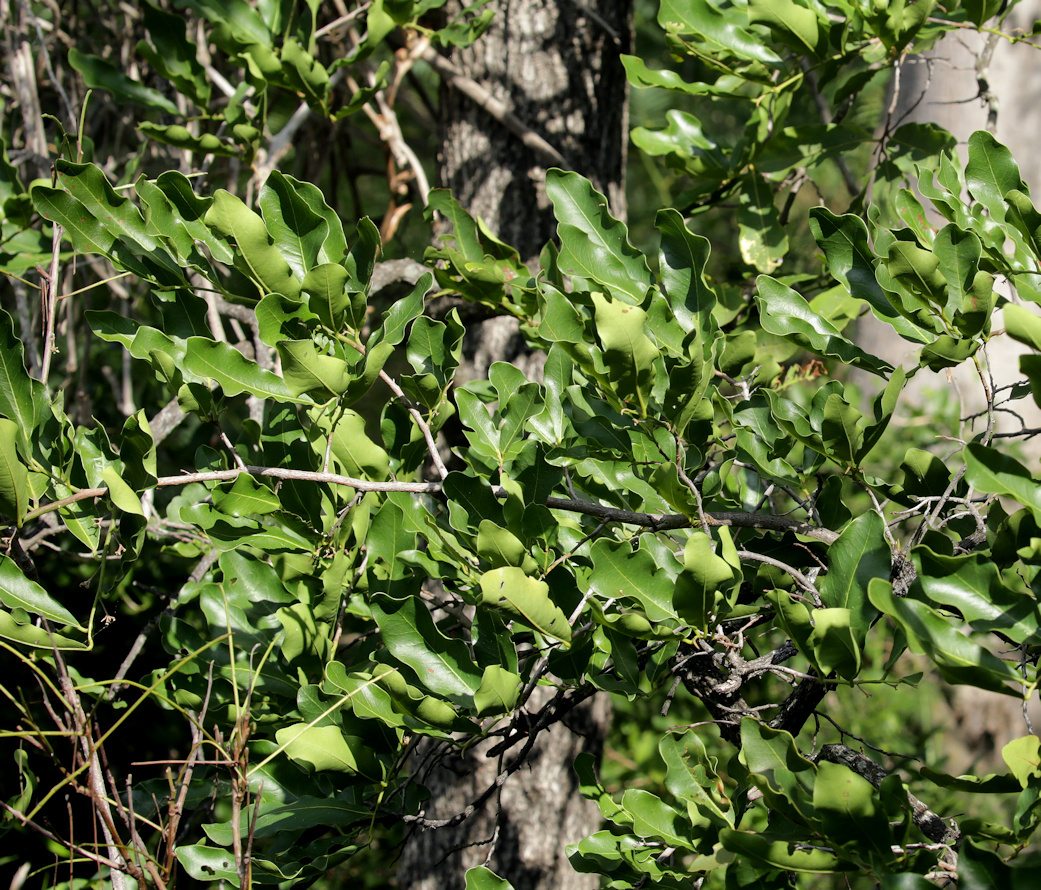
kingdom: Plantae
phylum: Tracheophyta
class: Magnoliopsida
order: Ericales
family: Ebenaceae
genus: Diospyros
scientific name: Diospyros mespiliformis
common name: Ebony diospyros
